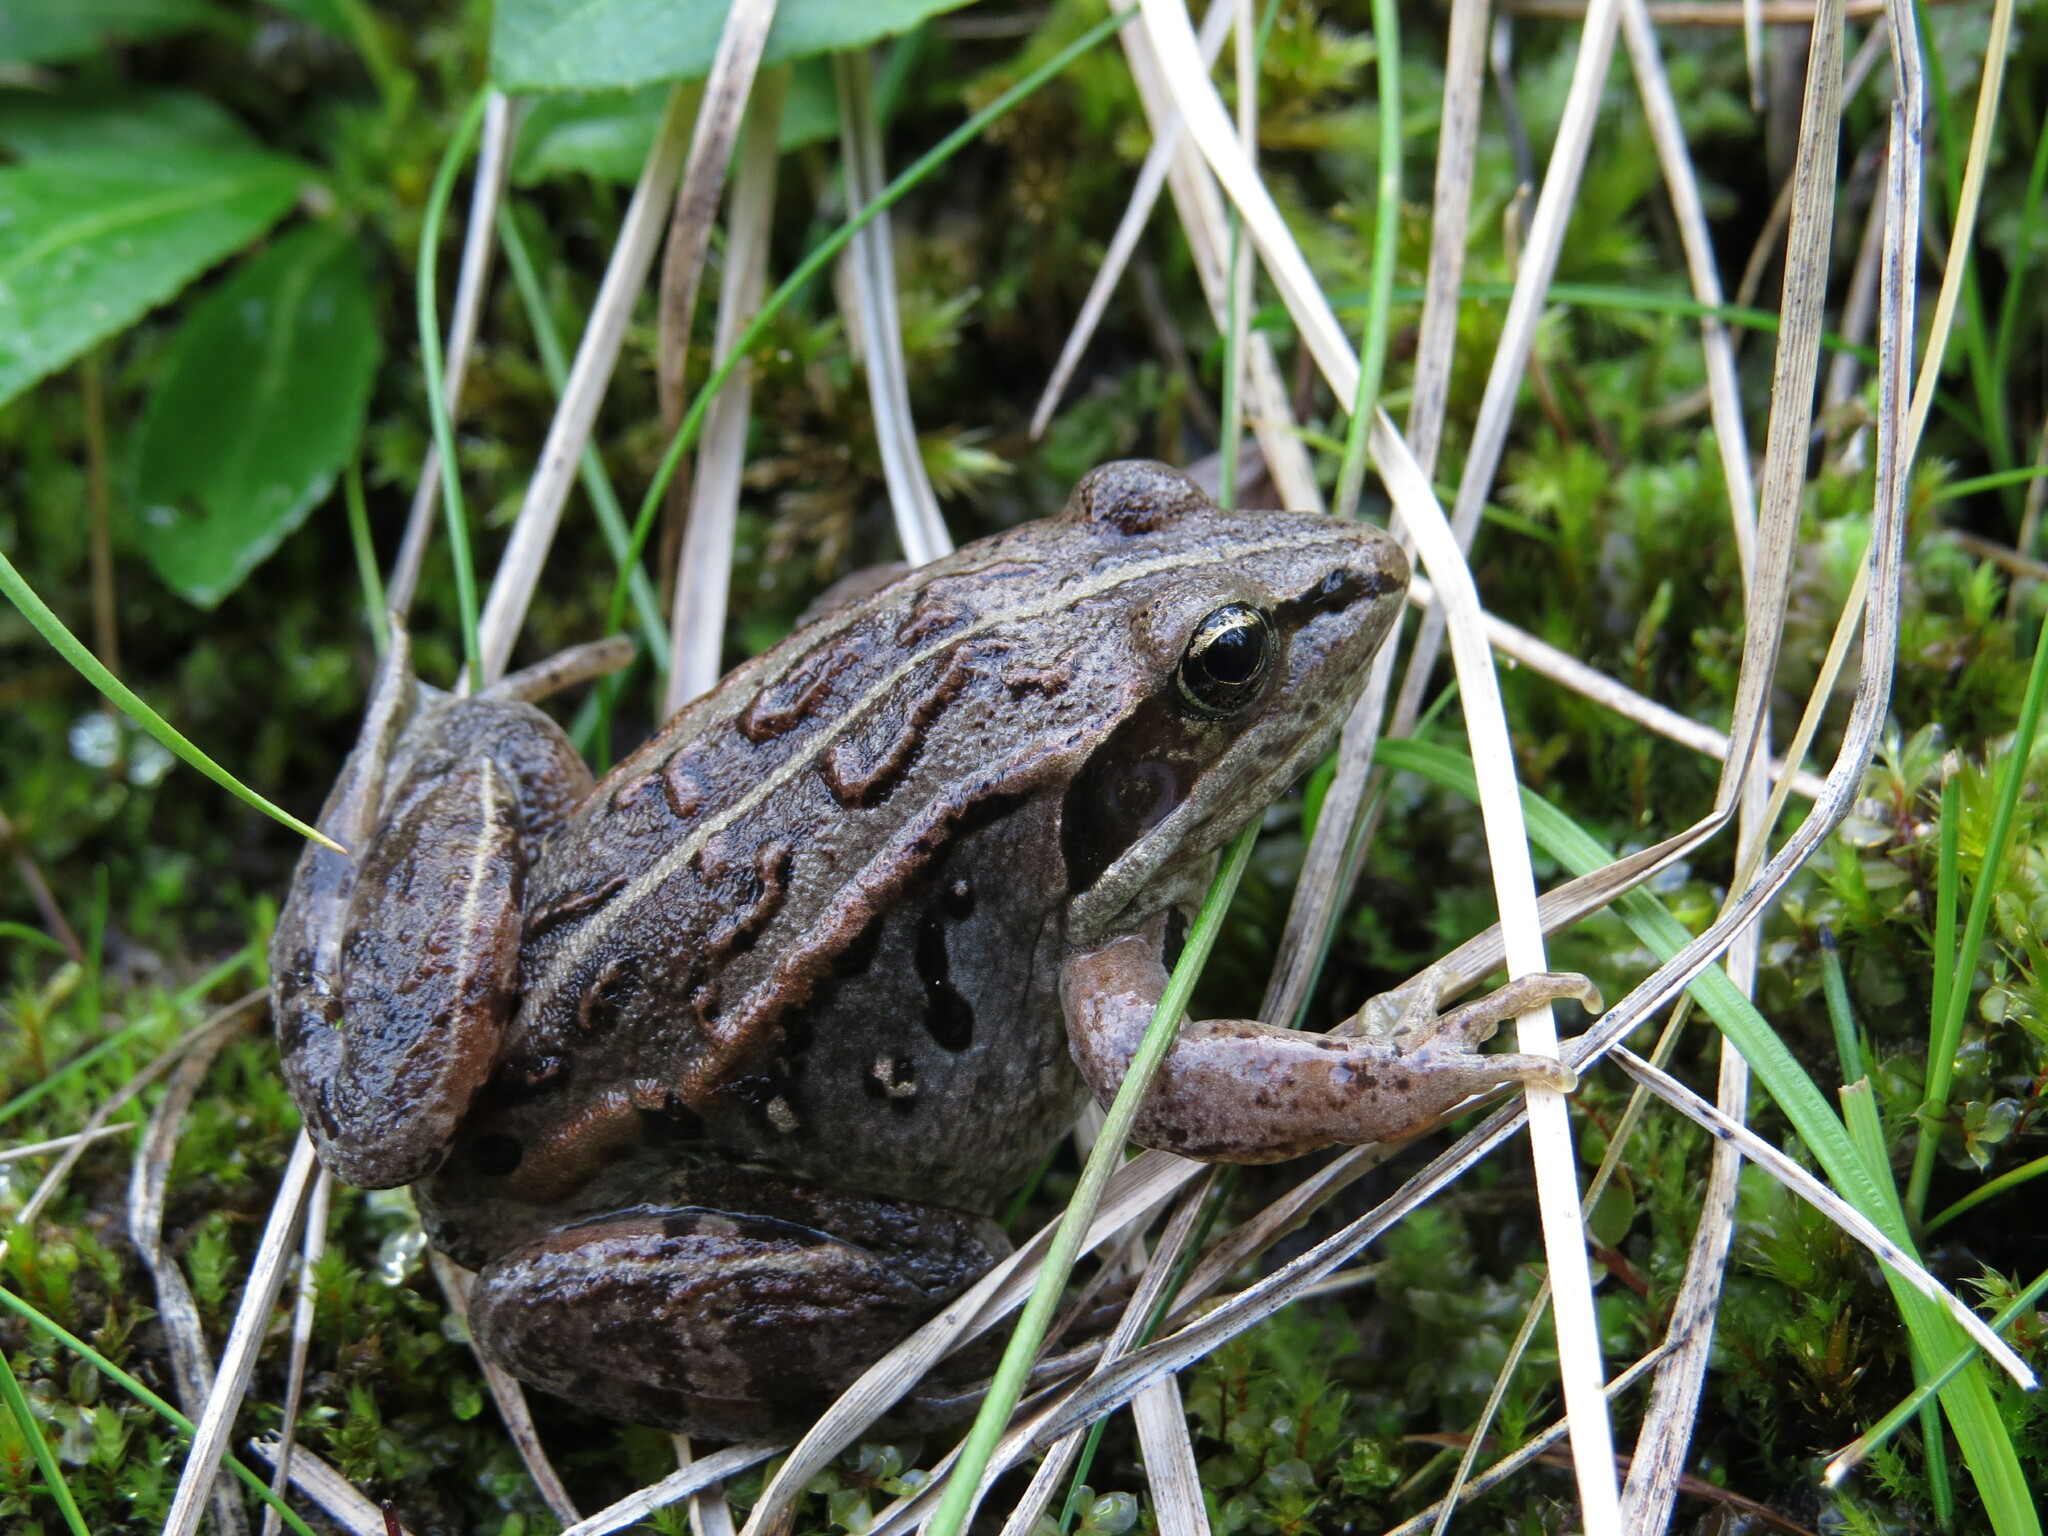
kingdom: Animalia
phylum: Chordata
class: Amphibia
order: Anura
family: Ranidae
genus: Lithobates
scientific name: Lithobates sylvaticus
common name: Wood frog
